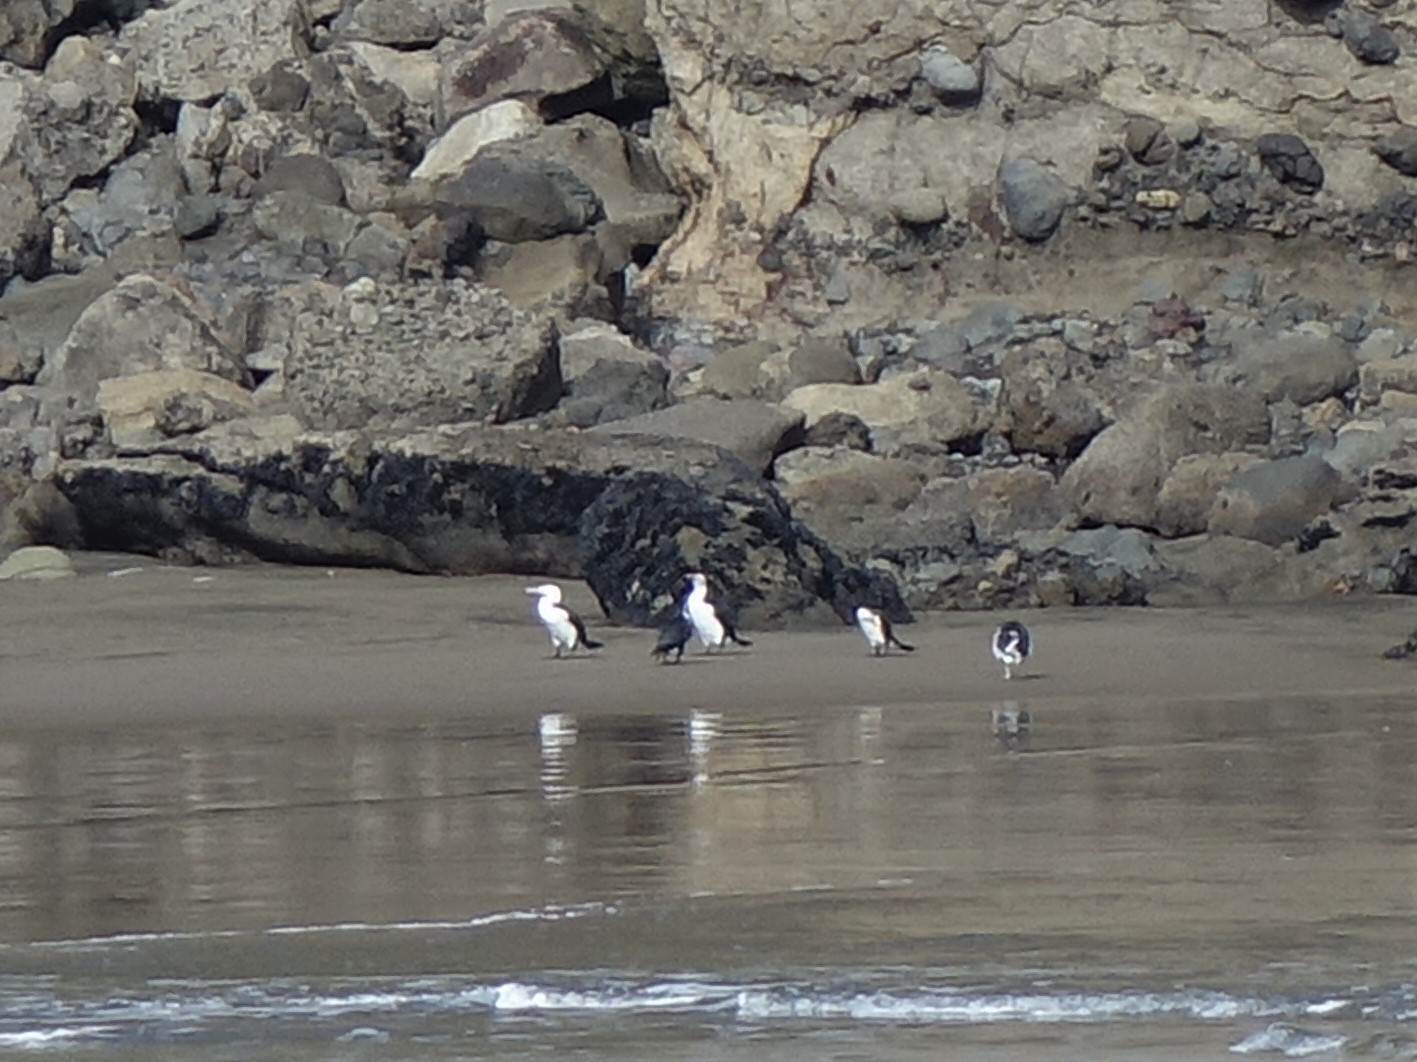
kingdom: Animalia
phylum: Chordata
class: Aves
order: Suliformes
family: Phalacrocoracidae
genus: Phalacrocorax
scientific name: Phalacrocorax varius
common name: Pied cormorant
